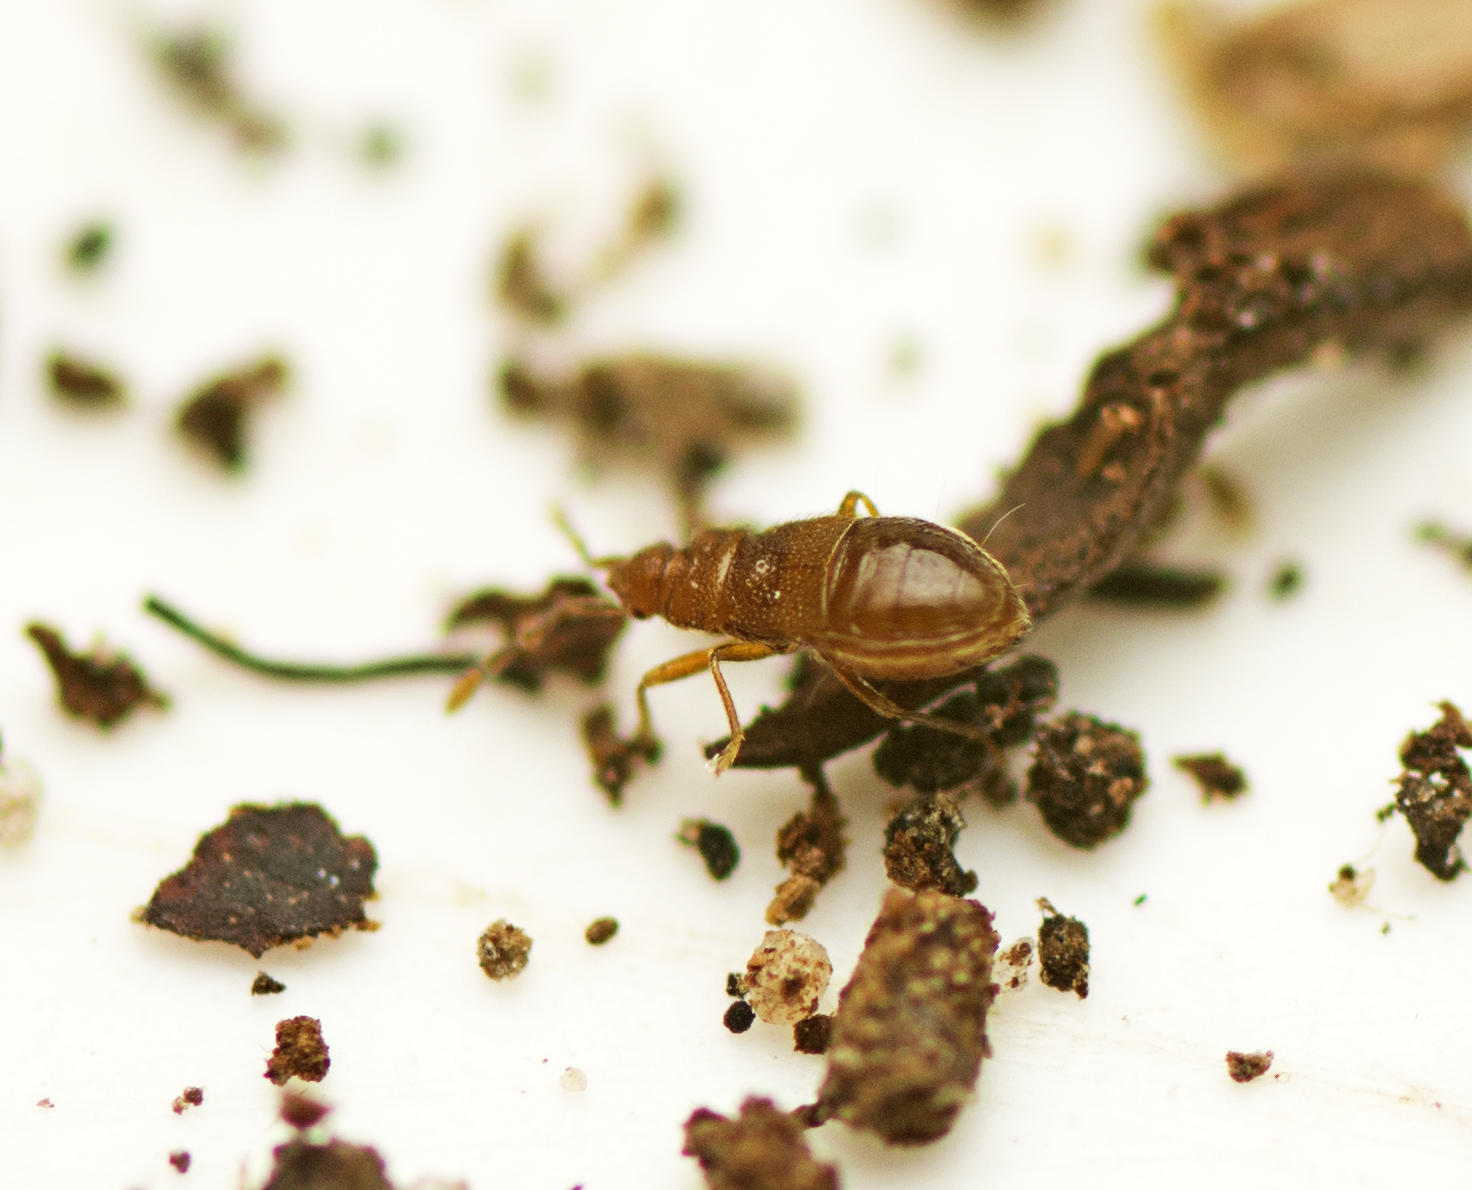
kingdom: Animalia
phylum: Arthropoda
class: Insecta
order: Hemiptera
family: Rhyparochromidae
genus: Lilliputocoris
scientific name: Lilliputocoris terraereginae
